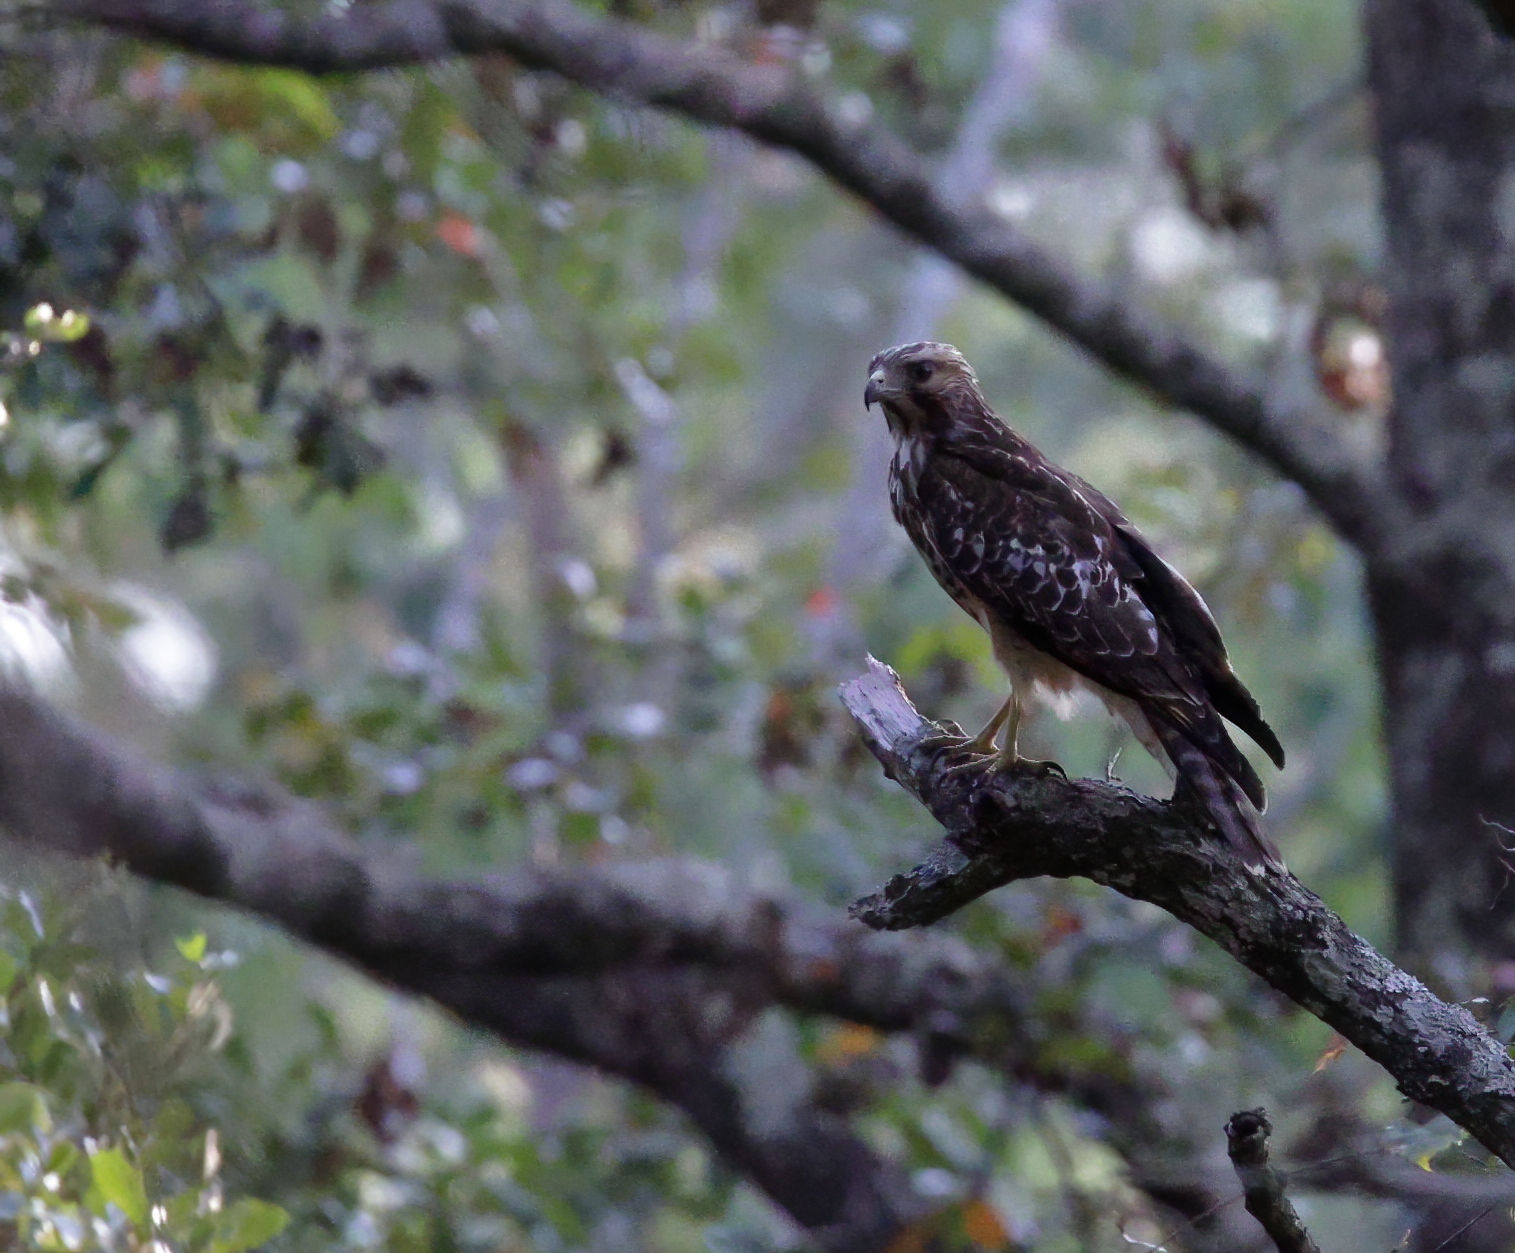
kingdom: Animalia
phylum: Chordata
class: Aves
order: Accipitriformes
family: Accipitridae
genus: Buteo
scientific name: Buteo lineatus
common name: Red-shouldered hawk
